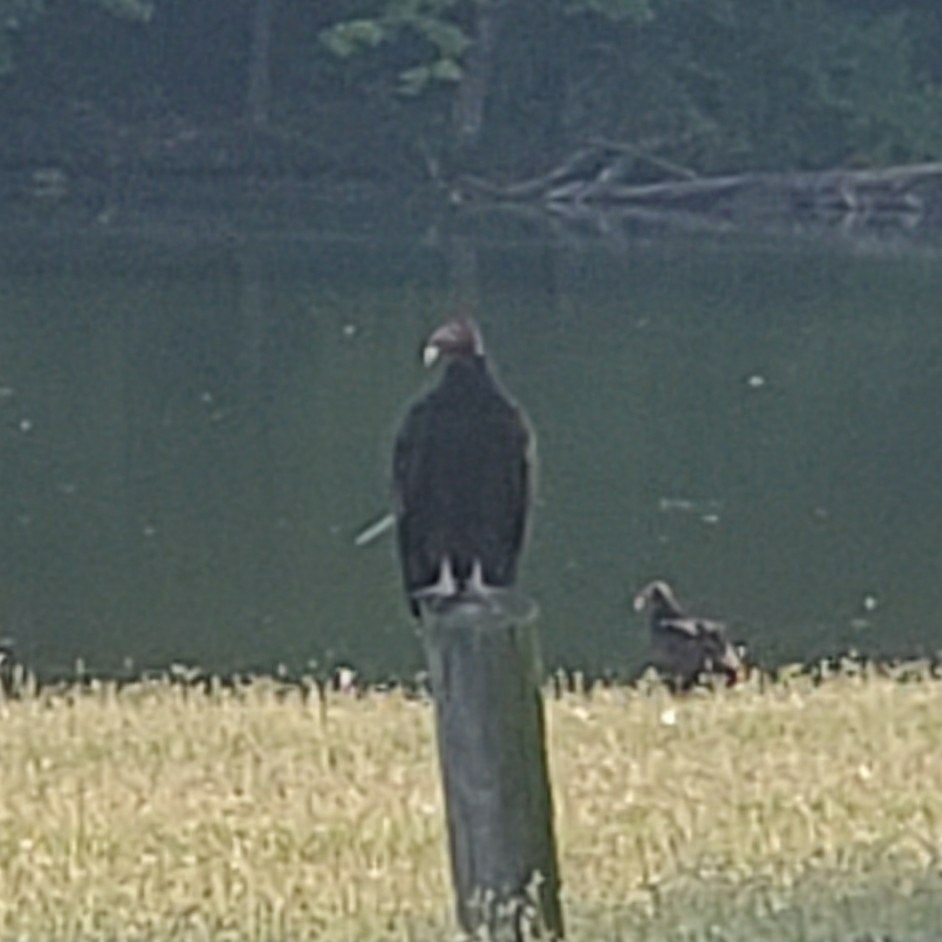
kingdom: Animalia
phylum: Chordata
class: Aves
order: Accipitriformes
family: Cathartidae
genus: Cathartes
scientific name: Cathartes aura
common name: Turkey vulture
